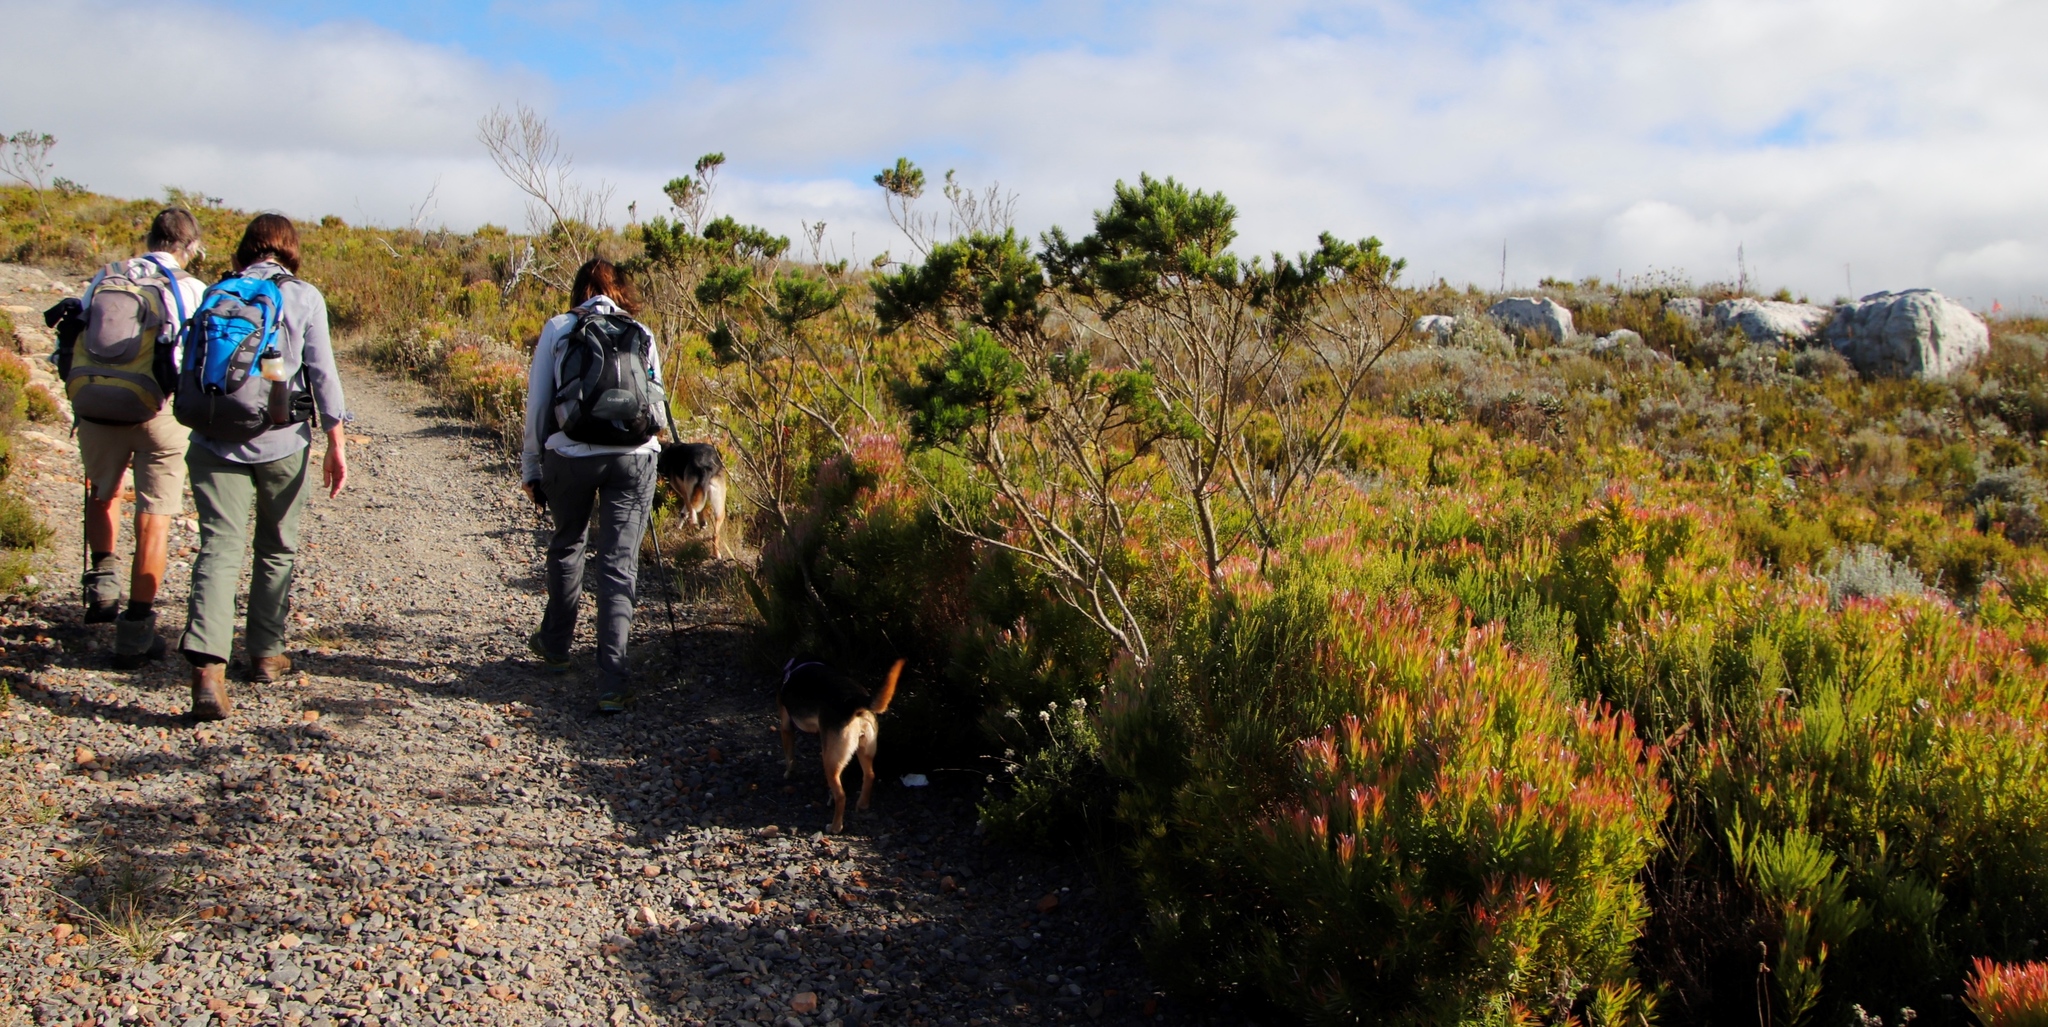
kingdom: Plantae
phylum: Tracheophyta
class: Magnoliopsida
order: Fabales
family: Fabaceae
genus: Psoralea
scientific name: Psoralea pinnata
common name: African scurfpea
